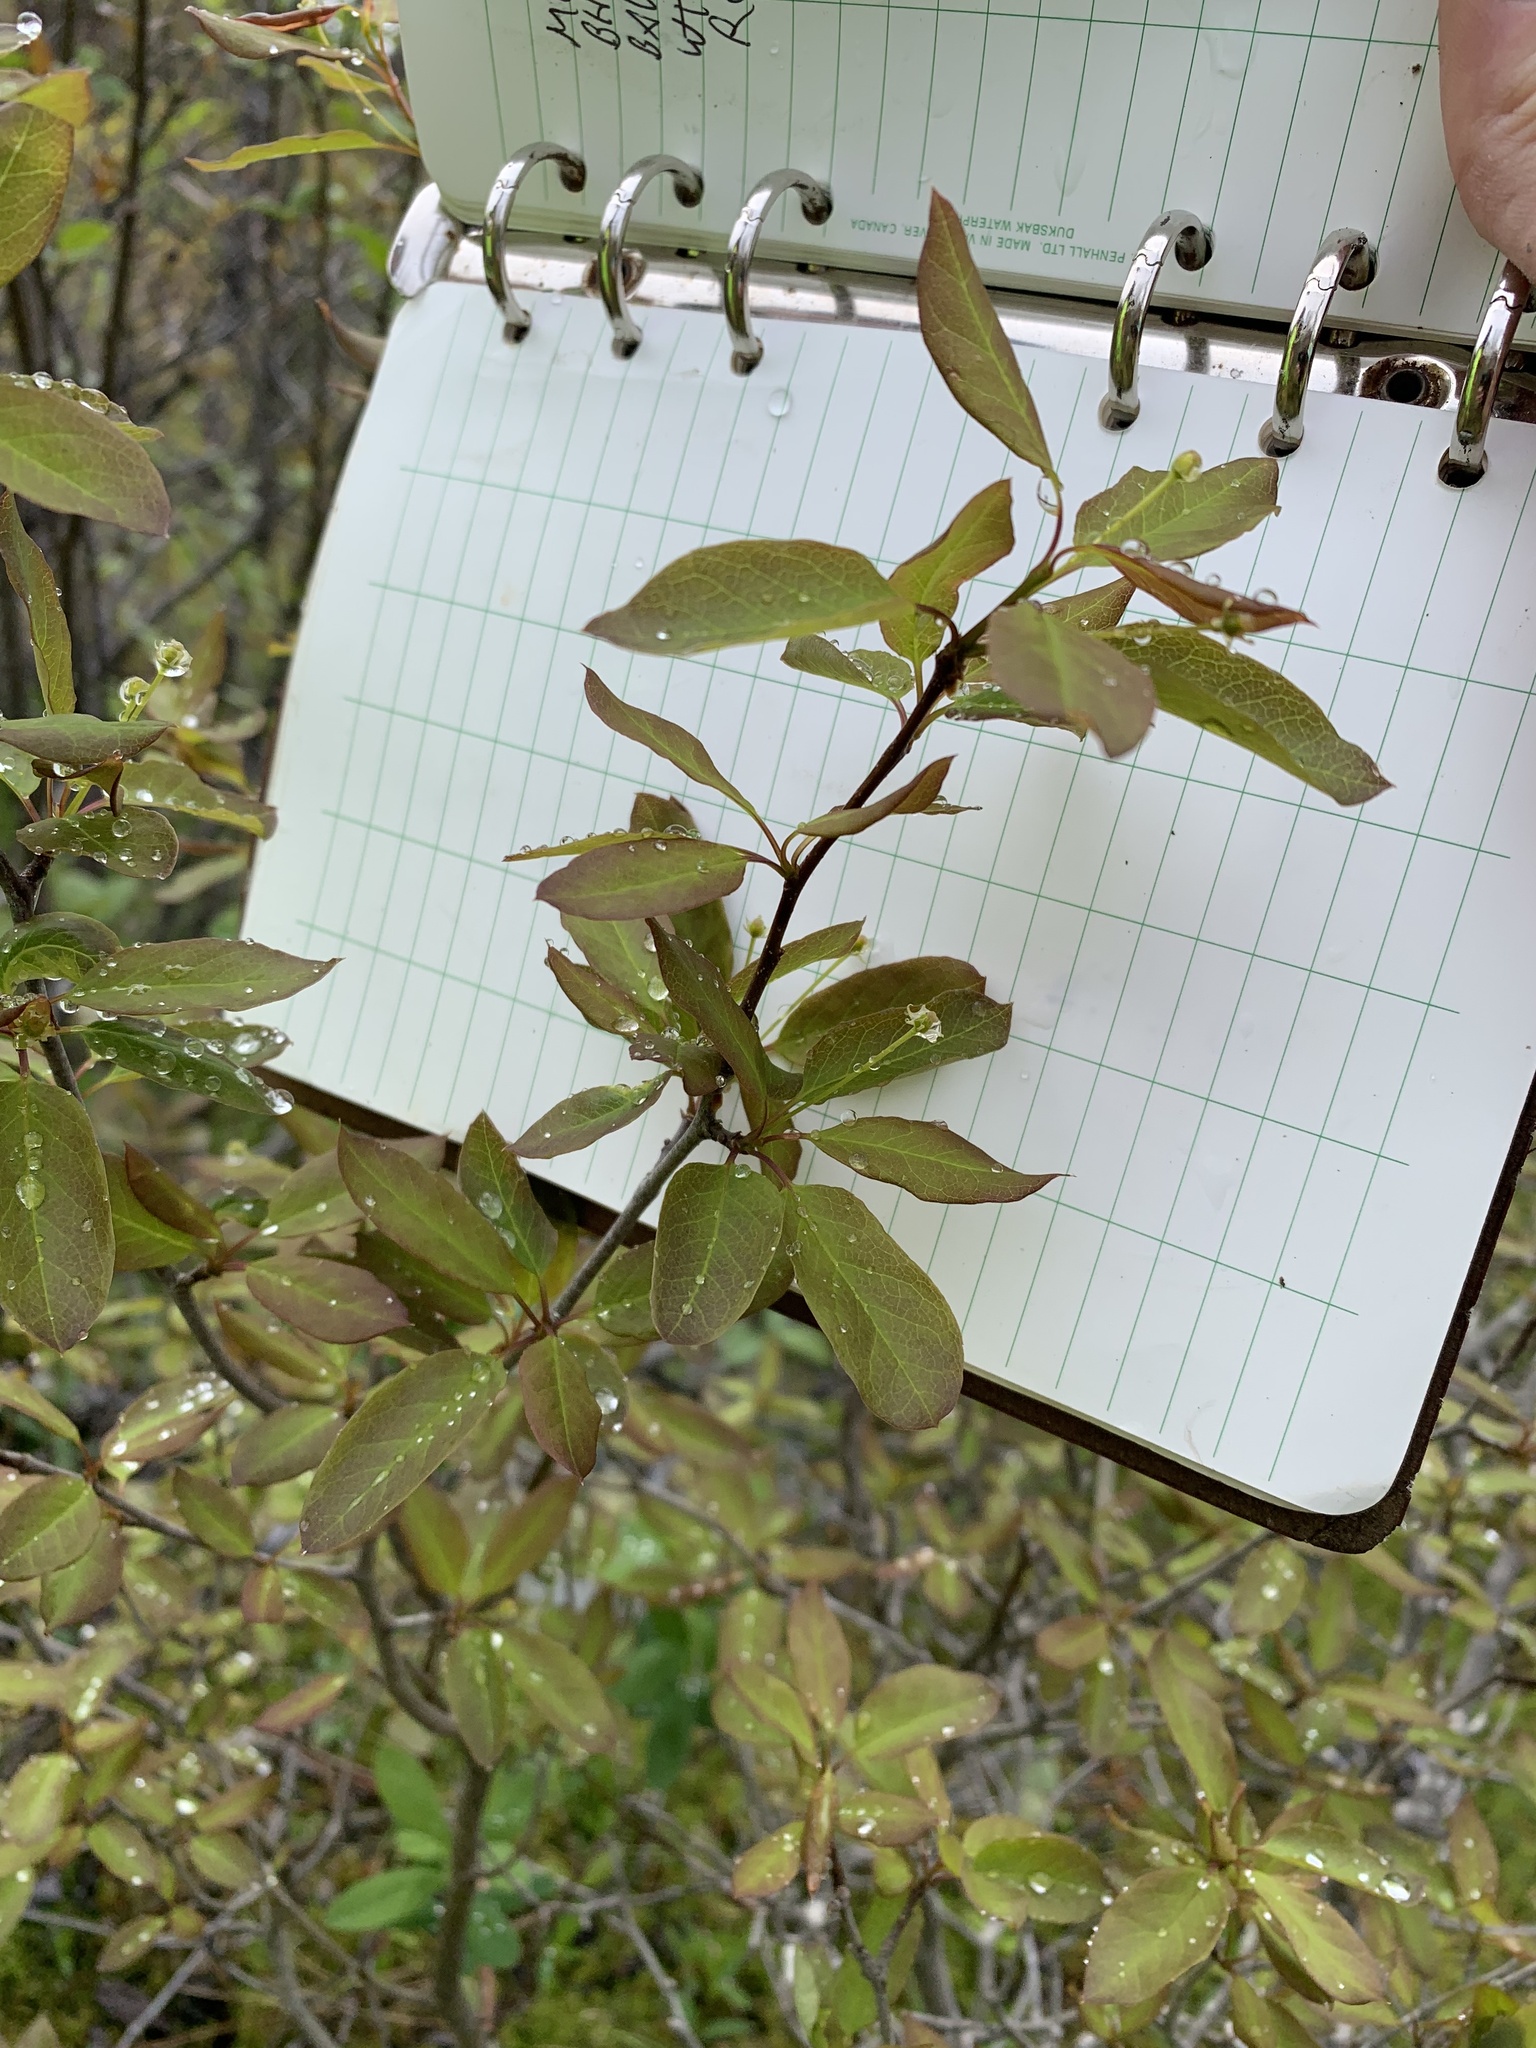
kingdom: Plantae
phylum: Tracheophyta
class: Magnoliopsida
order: Aquifoliales
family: Aquifoliaceae
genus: Ilex
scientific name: Ilex mucronata
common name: Catberry
